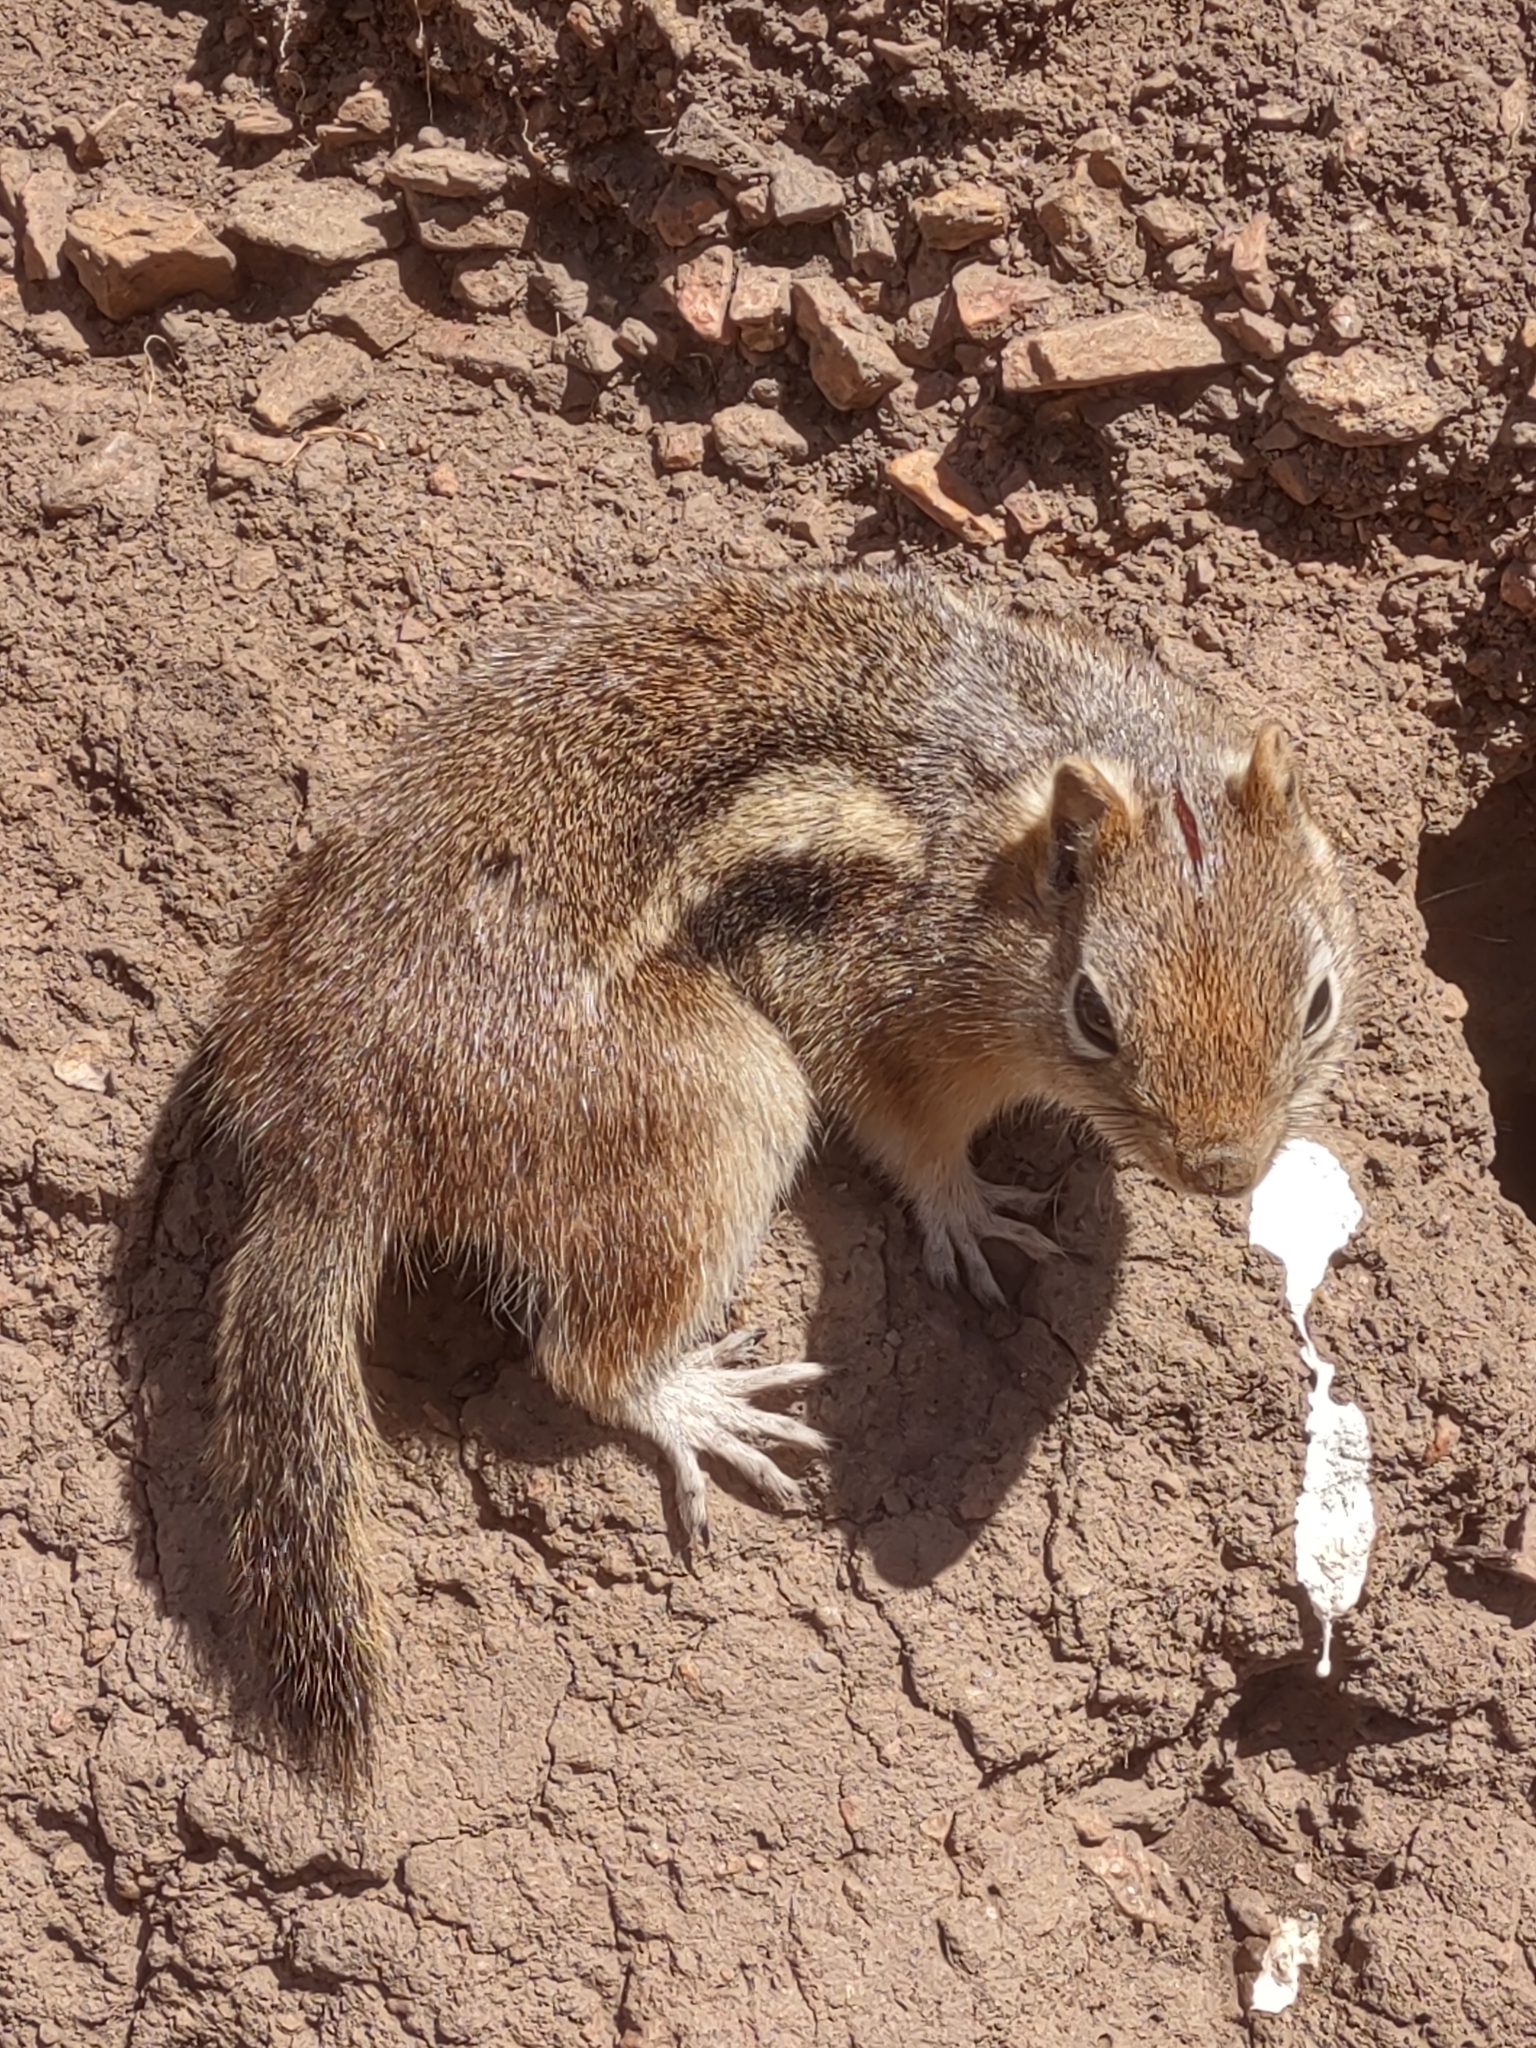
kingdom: Animalia
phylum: Chordata
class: Mammalia
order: Rodentia
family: Sciuridae
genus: Callospermophilus
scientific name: Callospermophilus lateralis
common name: Golden-mantled ground squirrel
